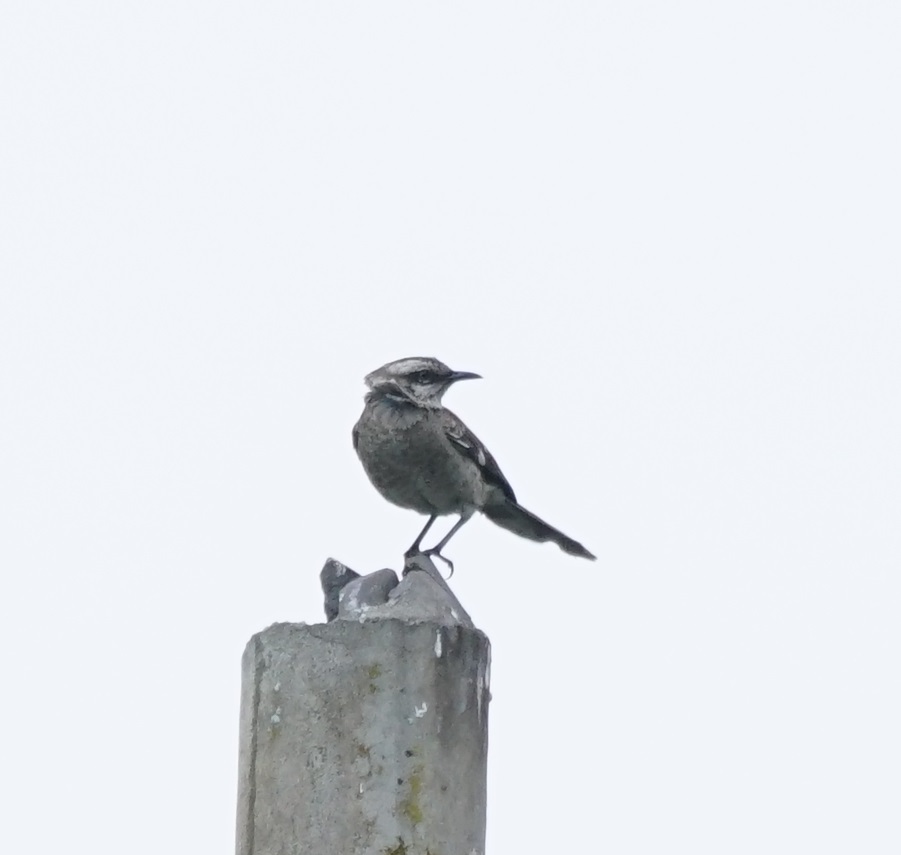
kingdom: Animalia
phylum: Chordata
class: Aves
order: Passeriformes
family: Mimidae
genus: Mimus
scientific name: Mimus longicaudatus
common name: Long-tailed mockingbird
